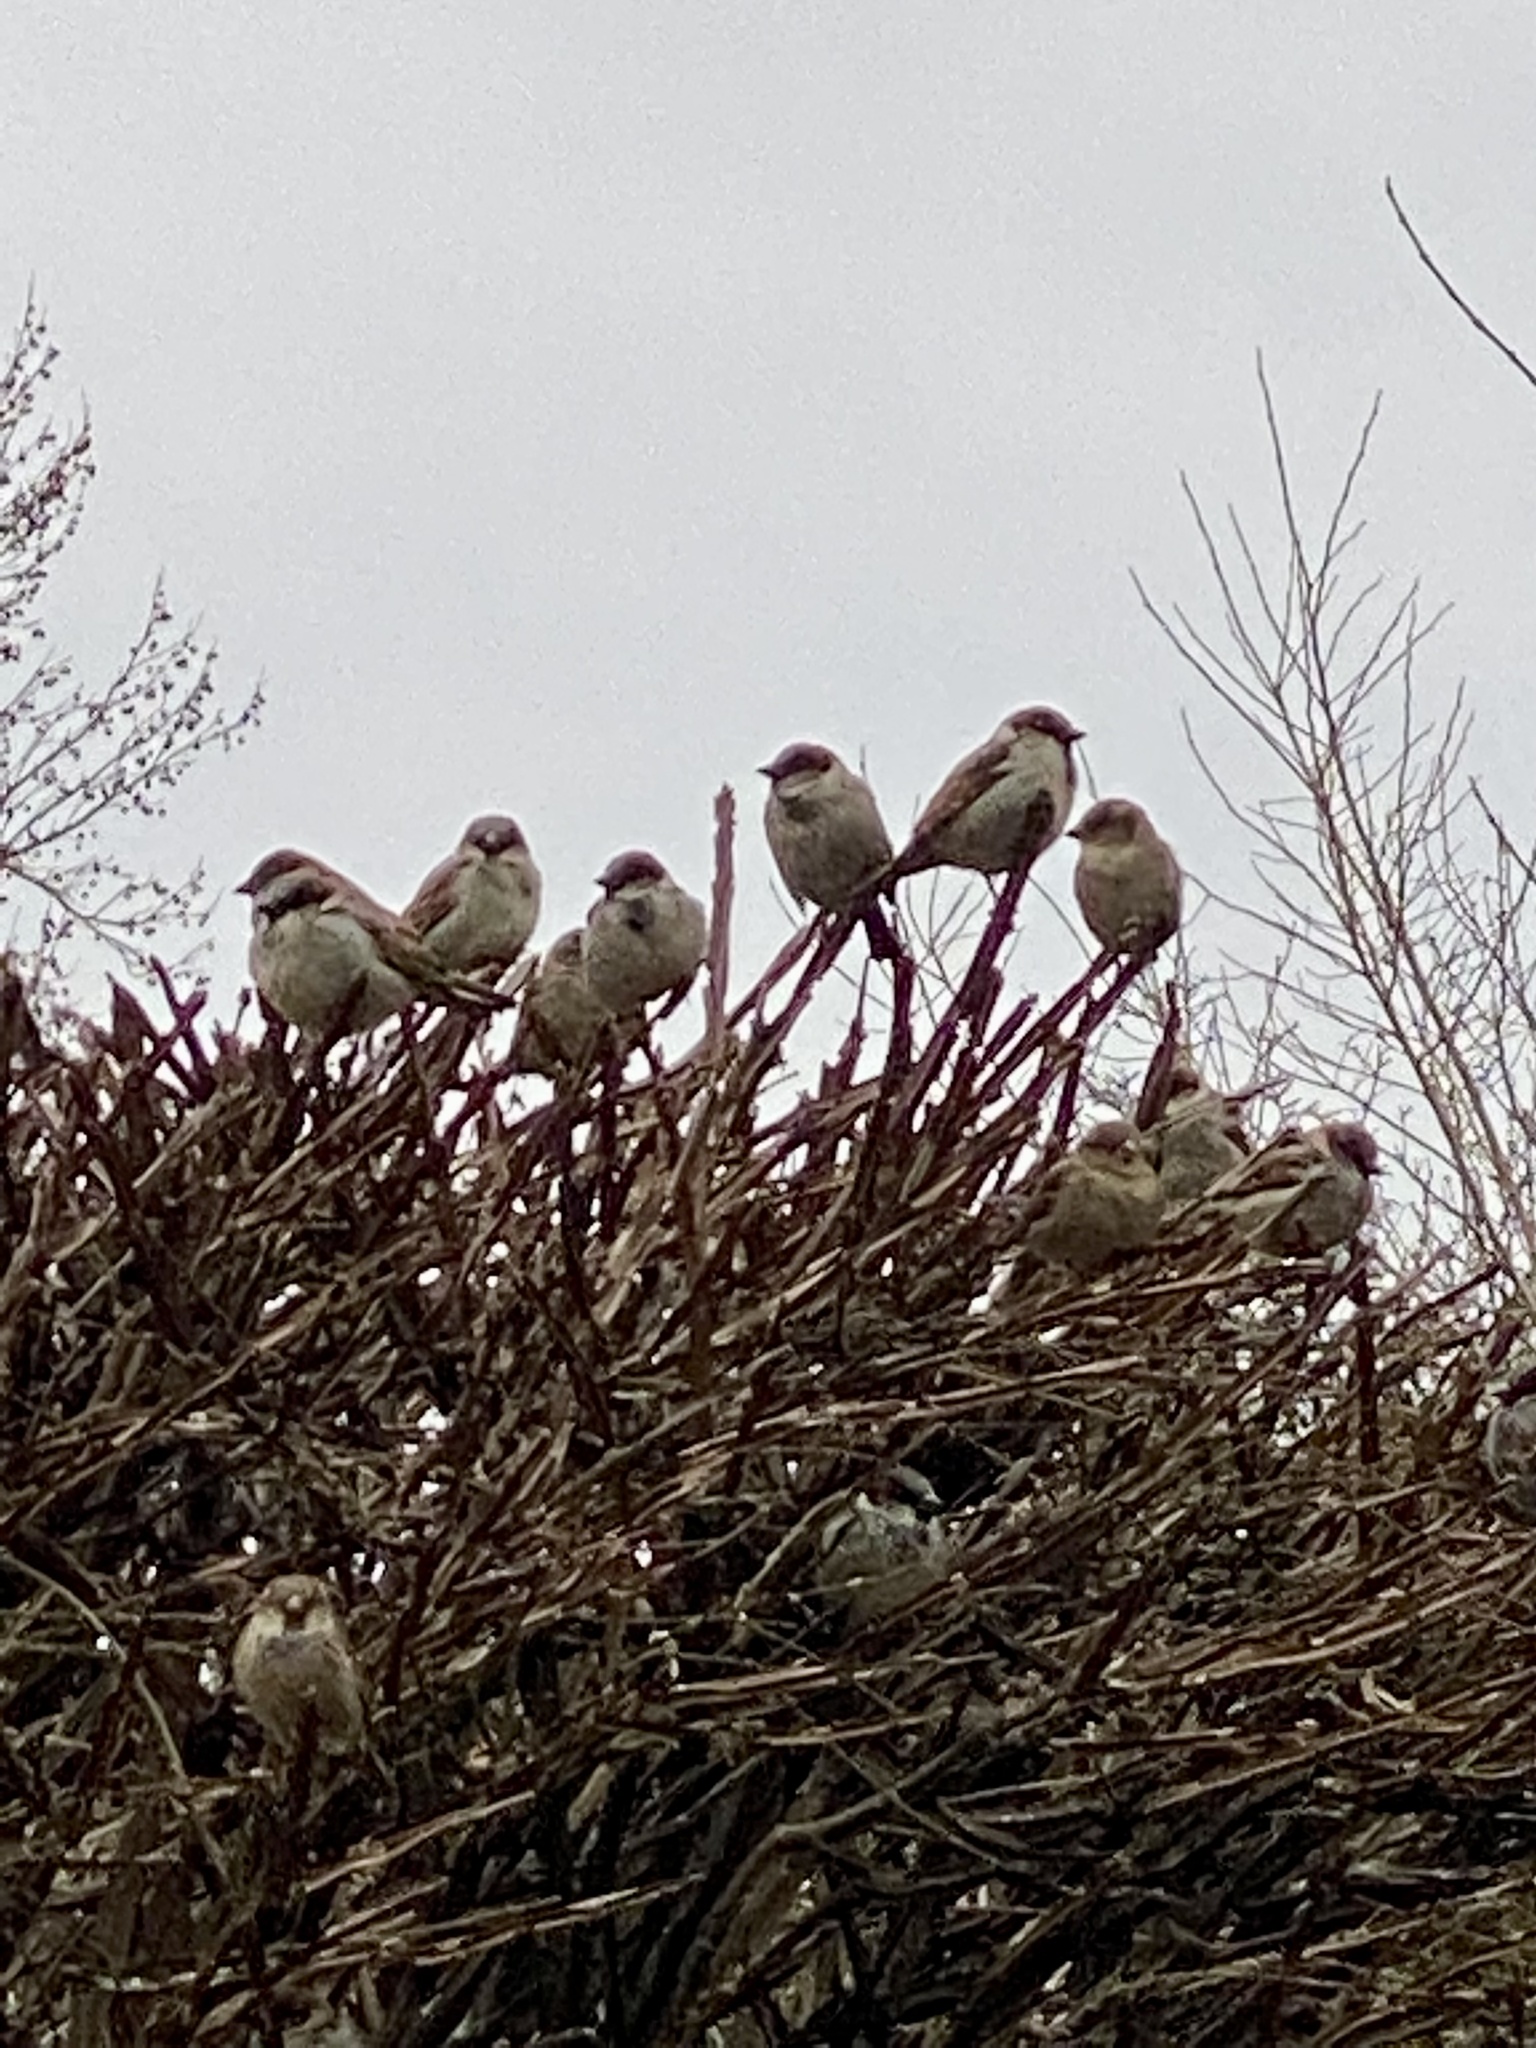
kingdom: Animalia
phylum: Chordata
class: Aves
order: Passeriformes
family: Passeridae
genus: Passer
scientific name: Passer domesticus
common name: House sparrow
